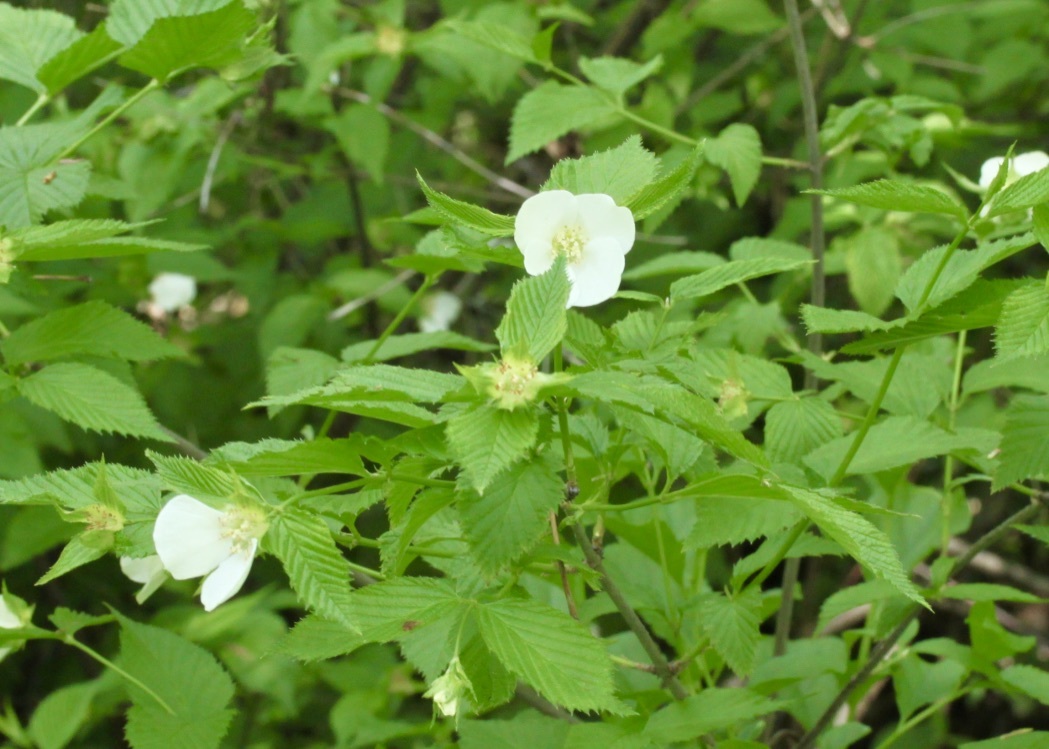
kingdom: Plantae
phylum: Tracheophyta
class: Magnoliopsida
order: Rosales
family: Rosaceae
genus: Rhodotypos
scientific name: Rhodotypos scandens
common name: Jetbead
